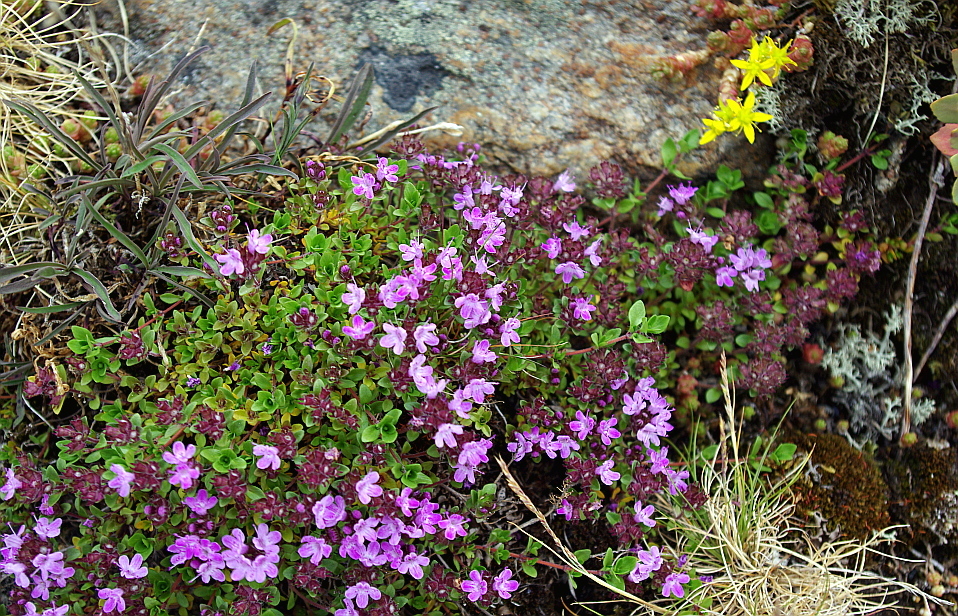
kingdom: Plantae
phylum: Tracheophyta
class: Magnoliopsida
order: Lamiales
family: Lamiaceae
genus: Thymus
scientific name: Thymus serpyllum
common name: Breckland thyme
